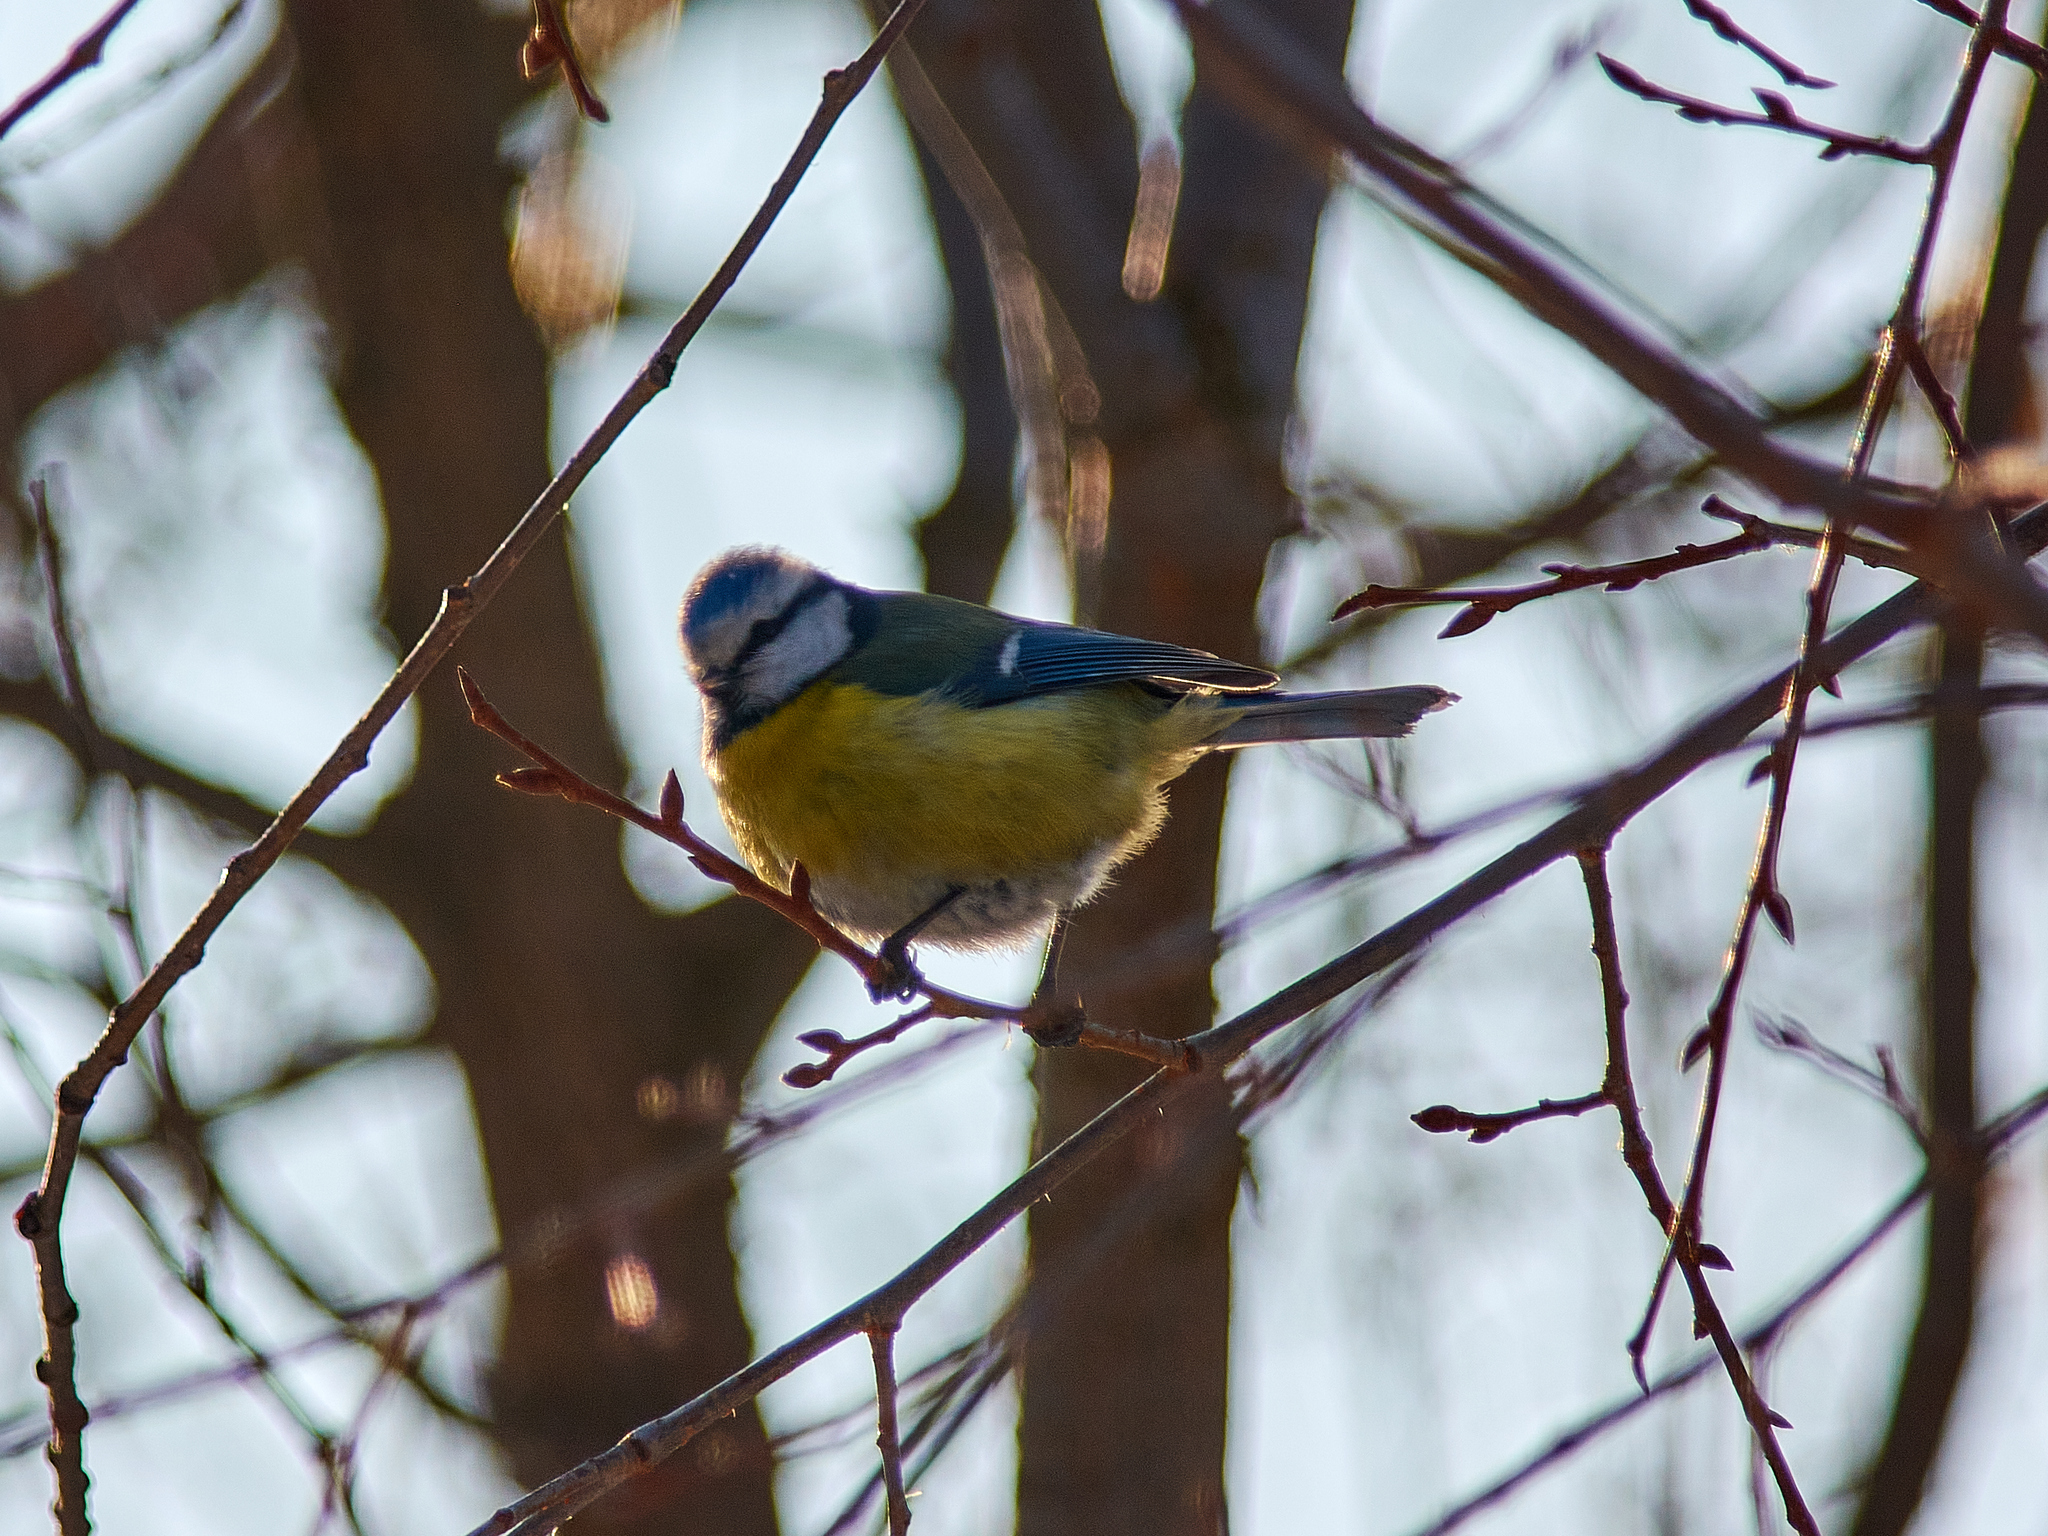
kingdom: Animalia
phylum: Chordata
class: Aves
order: Passeriformes
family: Paridae
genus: Cyanistes
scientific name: Cyanistes caeruleus
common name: Eurasian blue tit
